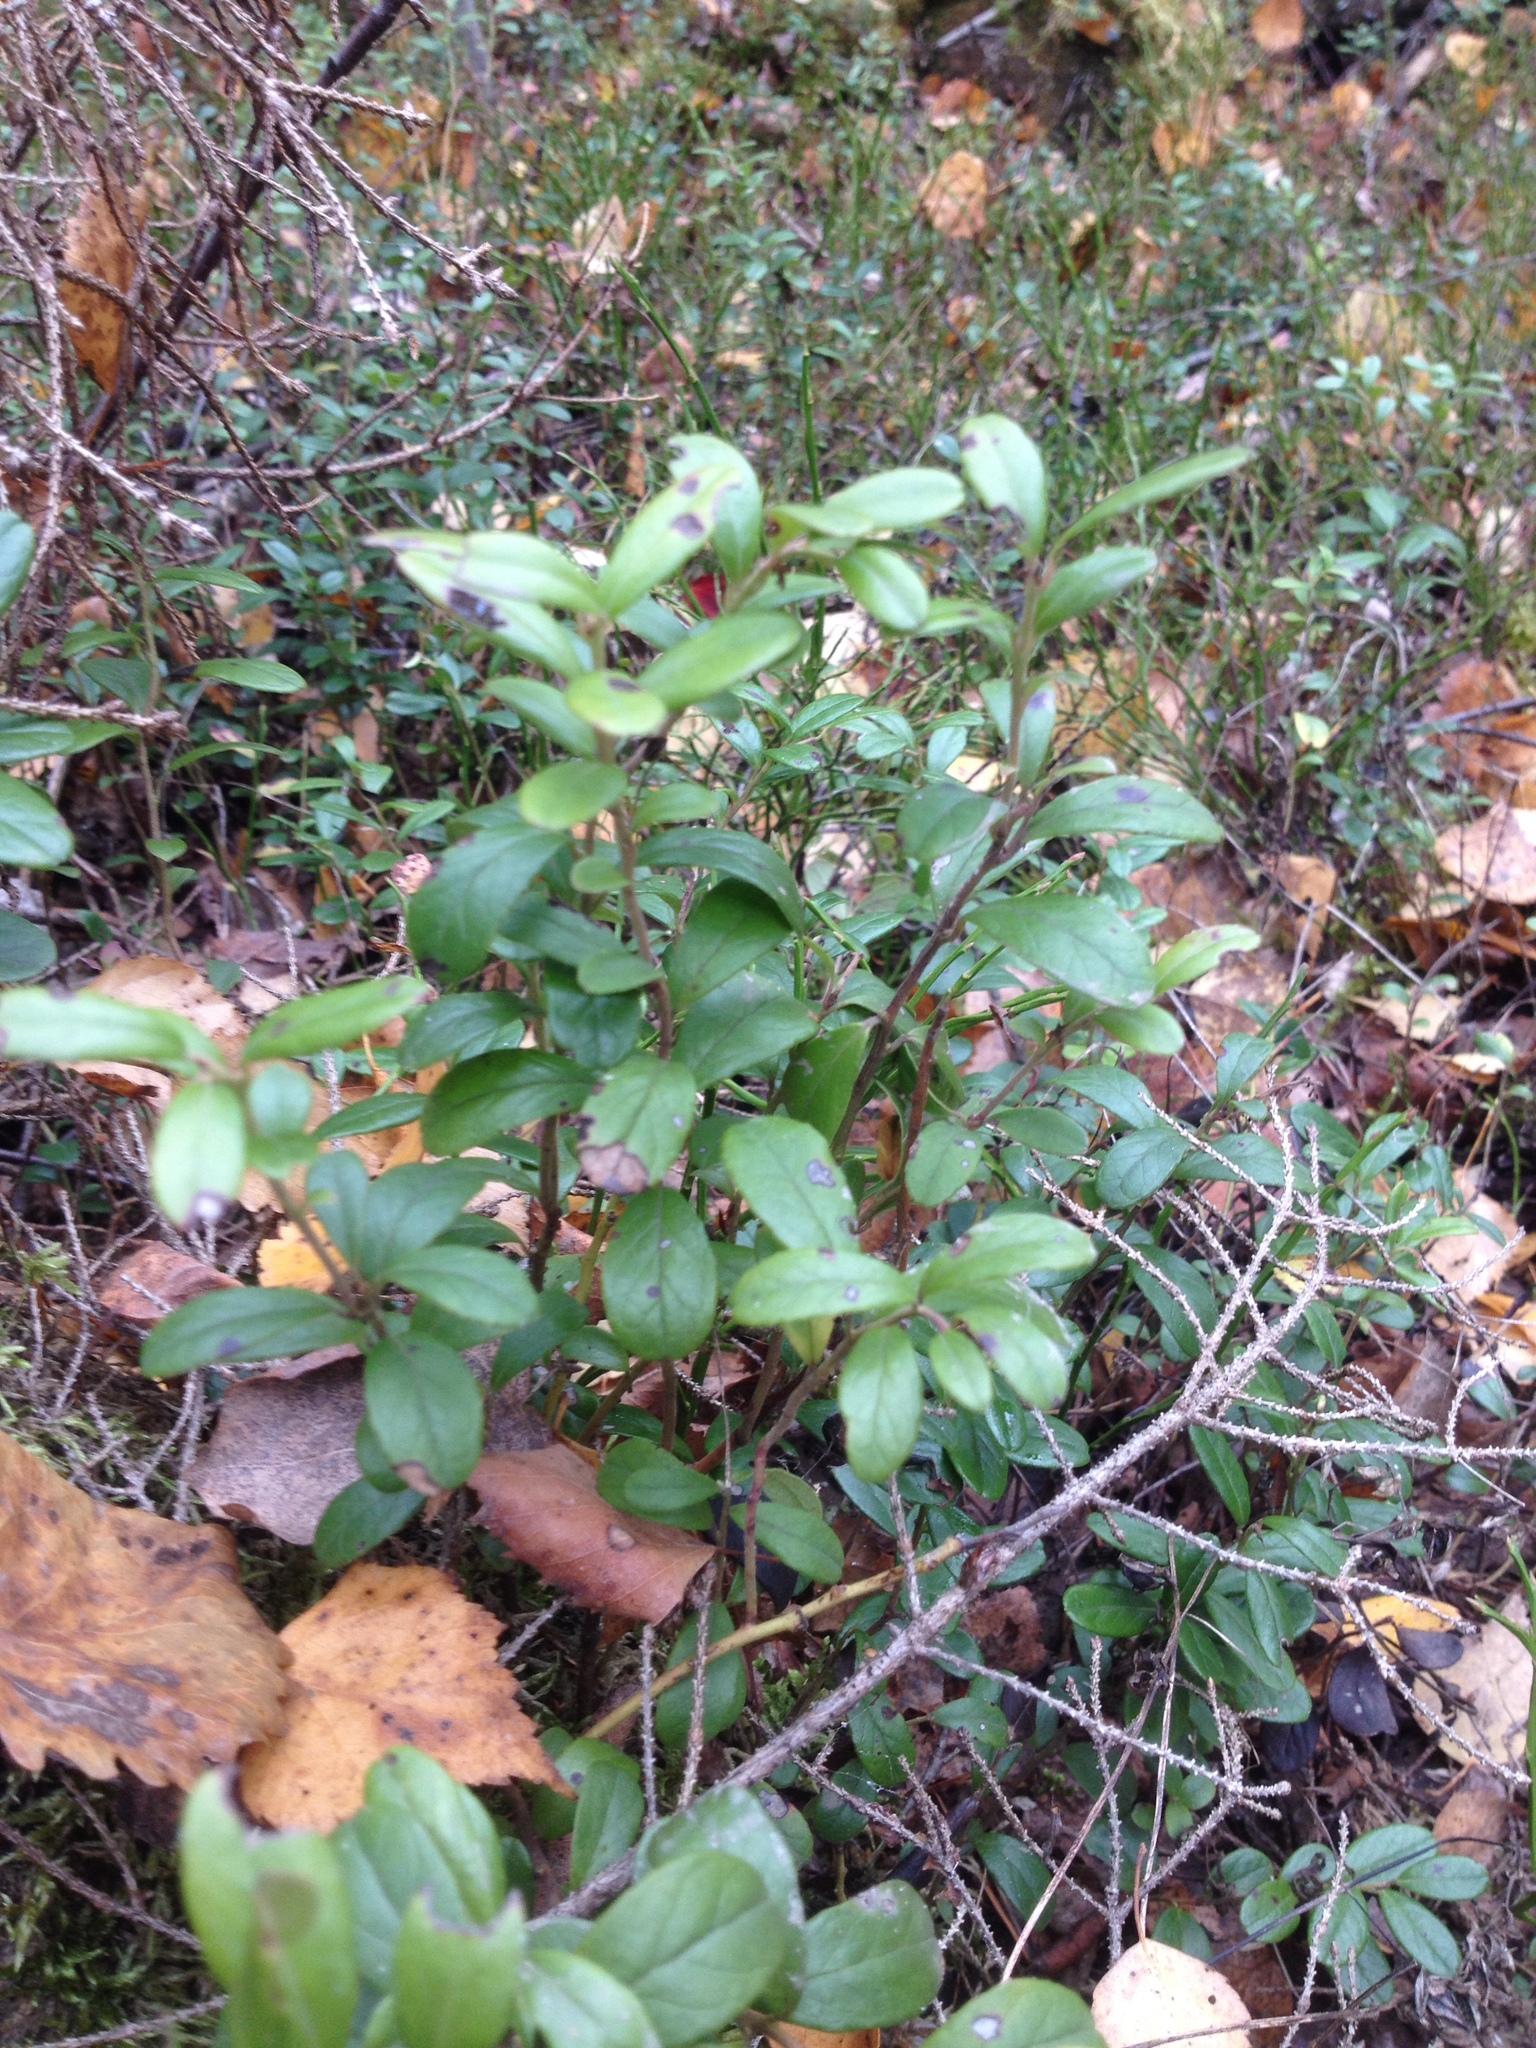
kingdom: Plantae
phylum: Tracheophyta
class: Magnoliopsida
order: Ericales
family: Ericaceae
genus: Vaccinium
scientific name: Vaccinium vitis-idaea
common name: Cowberry
